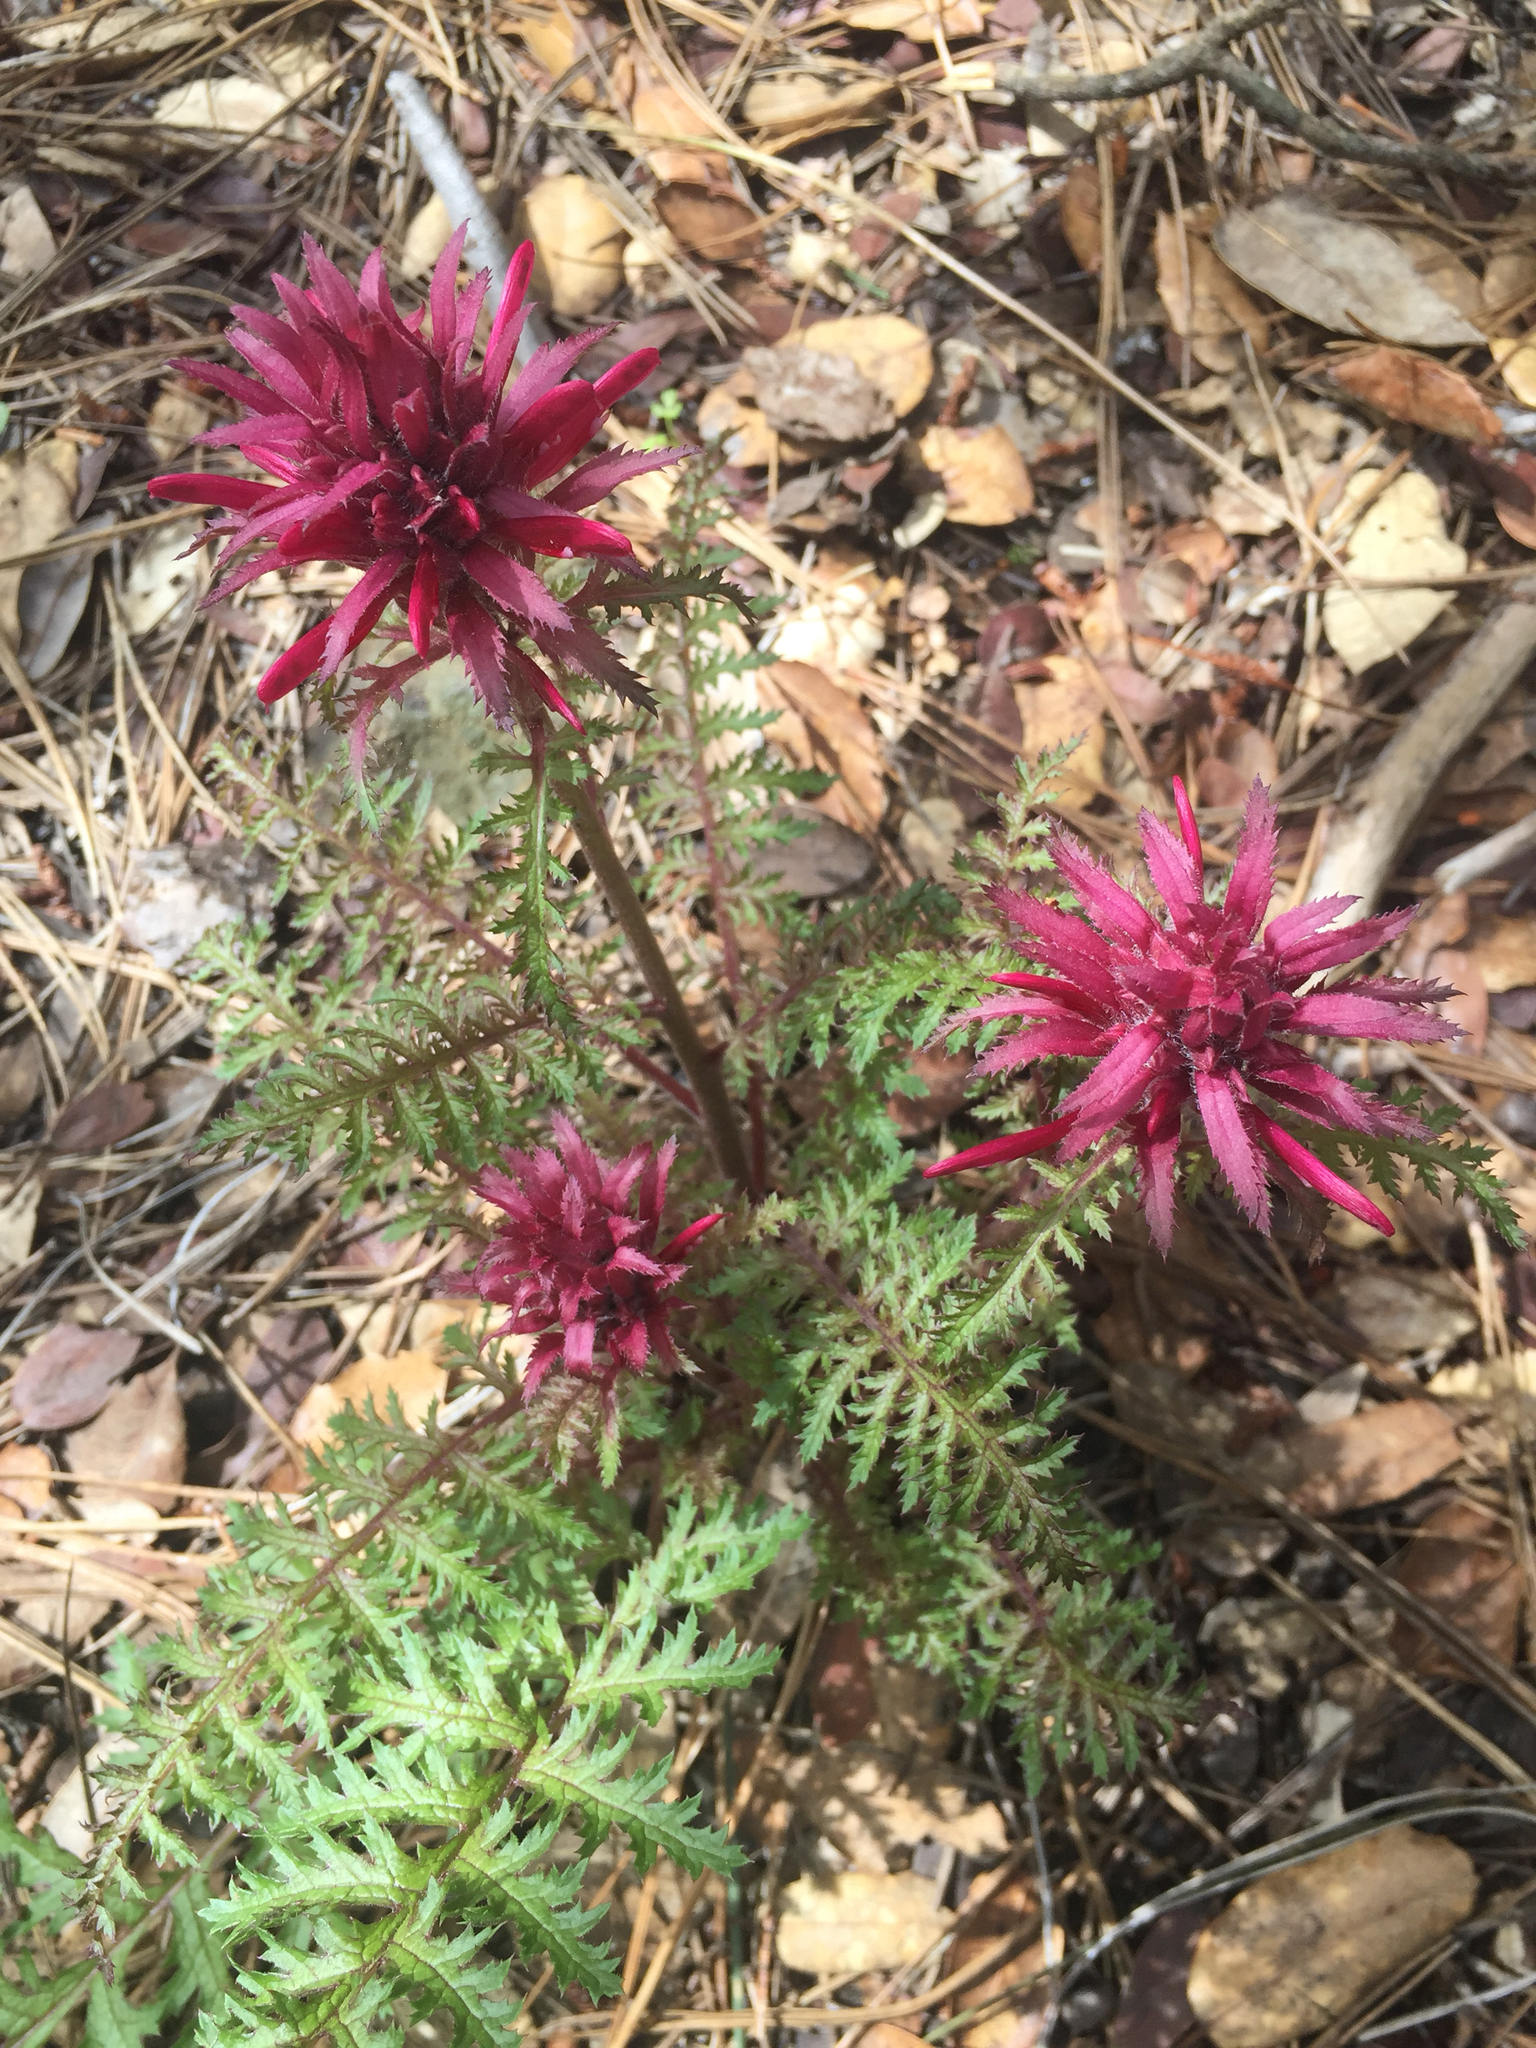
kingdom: Plantae
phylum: Tracheophyta
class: Magnoliopsida
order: Lamiales
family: Orobanchaceae
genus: Pedicularis
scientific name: Pedicularis densiflora
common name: Indian warrior
